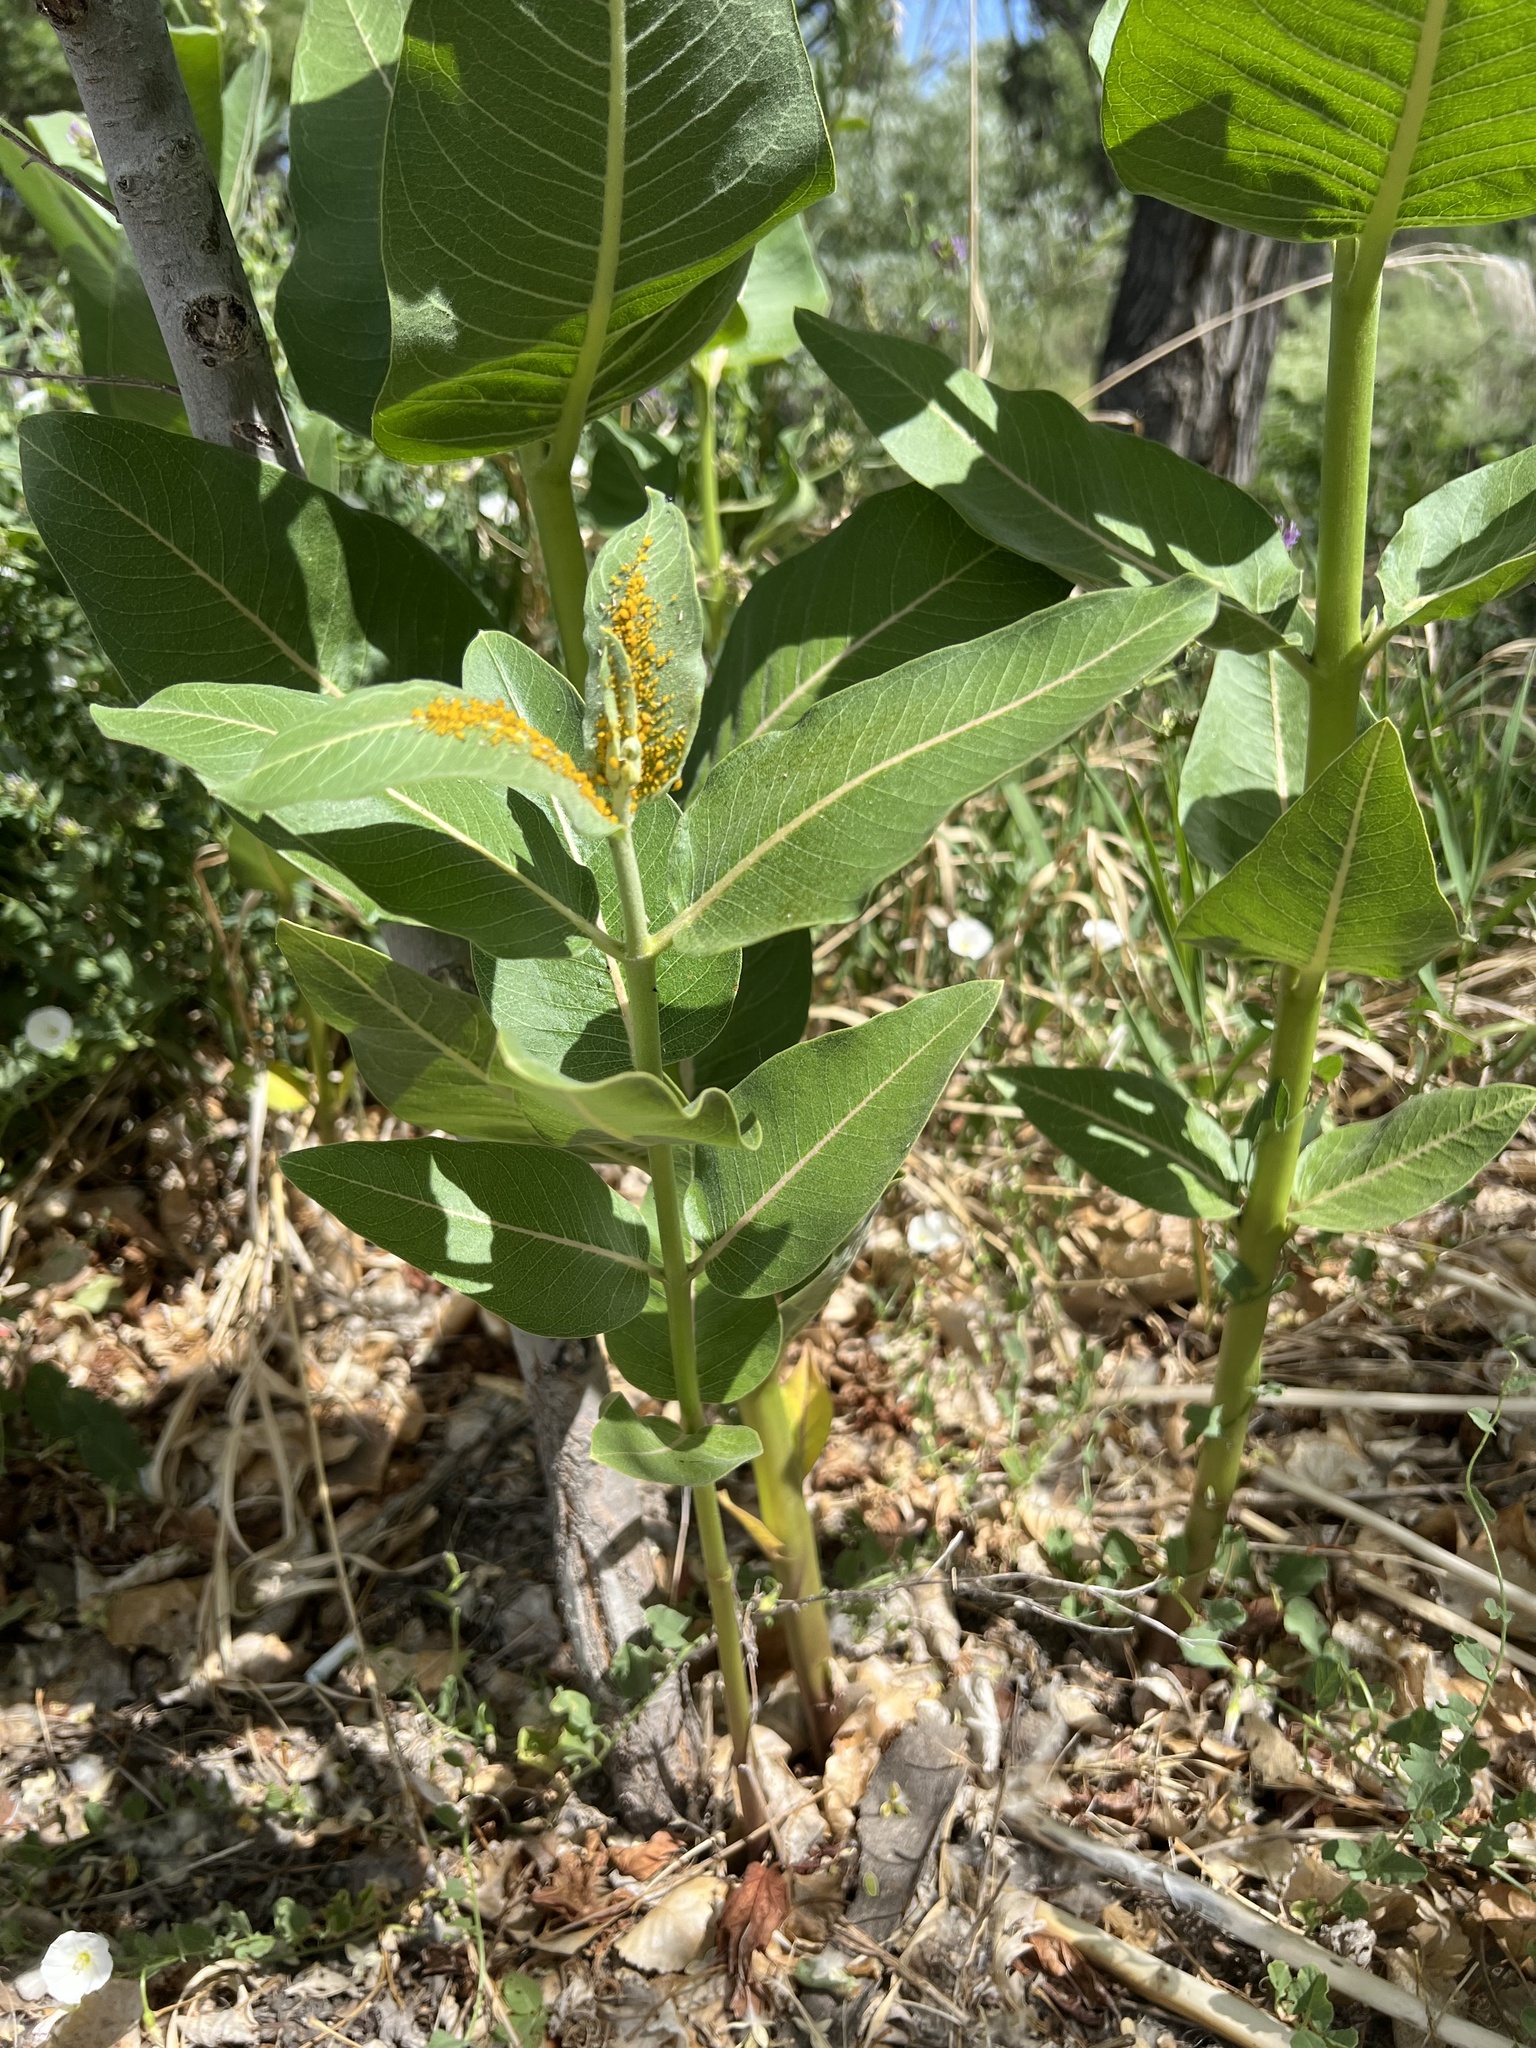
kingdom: Plantae
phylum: Tracheophyta
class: Magnoliopsida
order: Gentianales
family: Apocynaceae
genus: Asclepias
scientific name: Asclepias speciosa
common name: Showy milkweed
